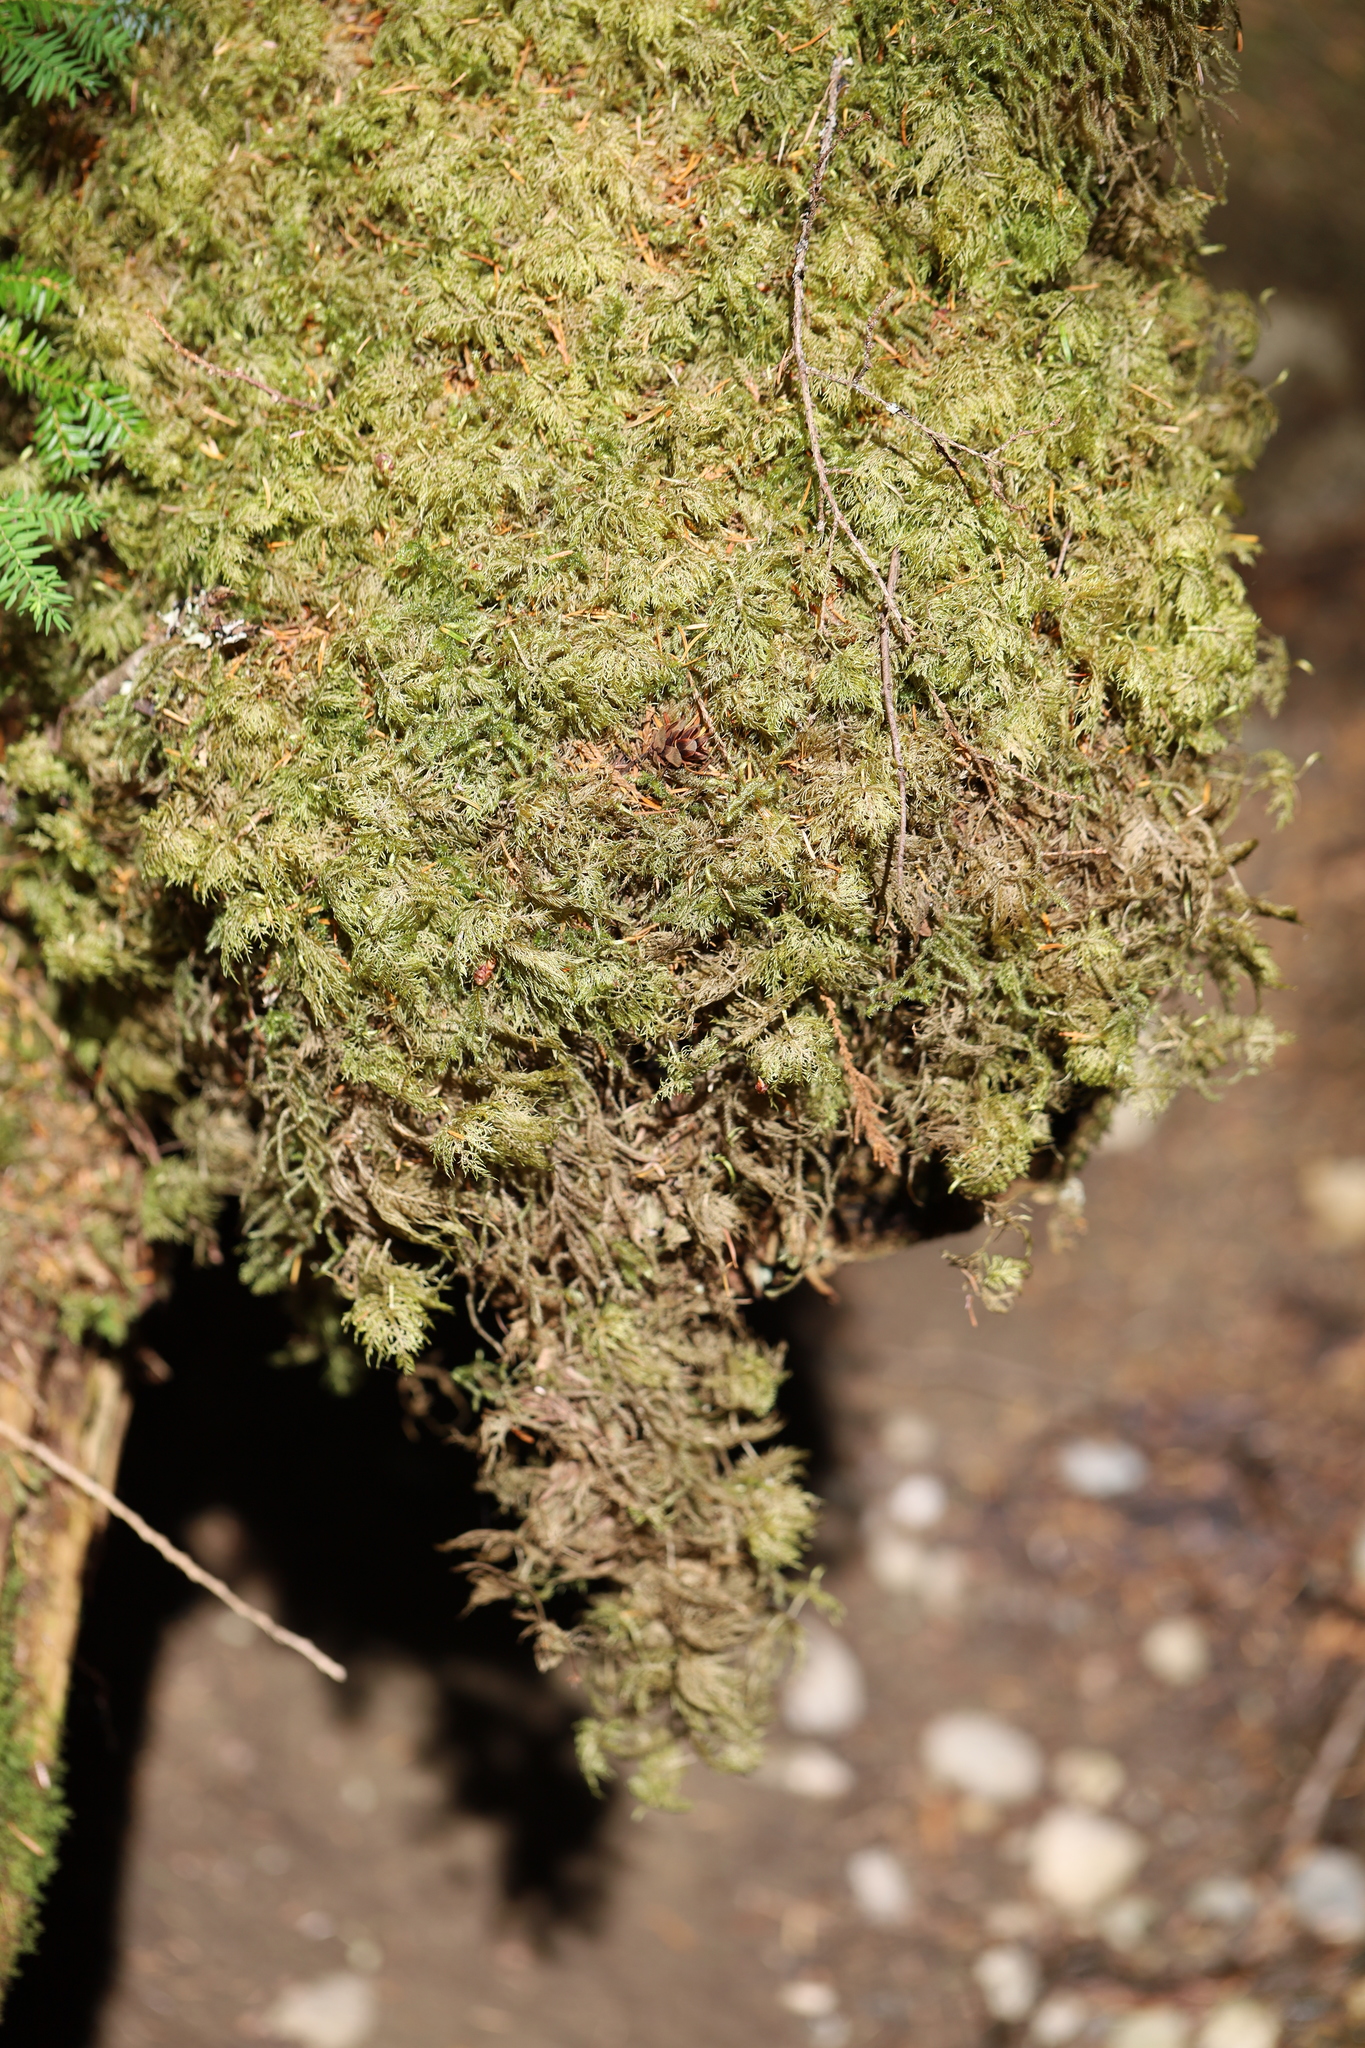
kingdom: Plantae
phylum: Bryophyta
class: Bryopsida
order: Hypnales
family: Hylocomiaceae
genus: Hylocomium
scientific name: Hylocomium splendens
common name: Stairstep moss
